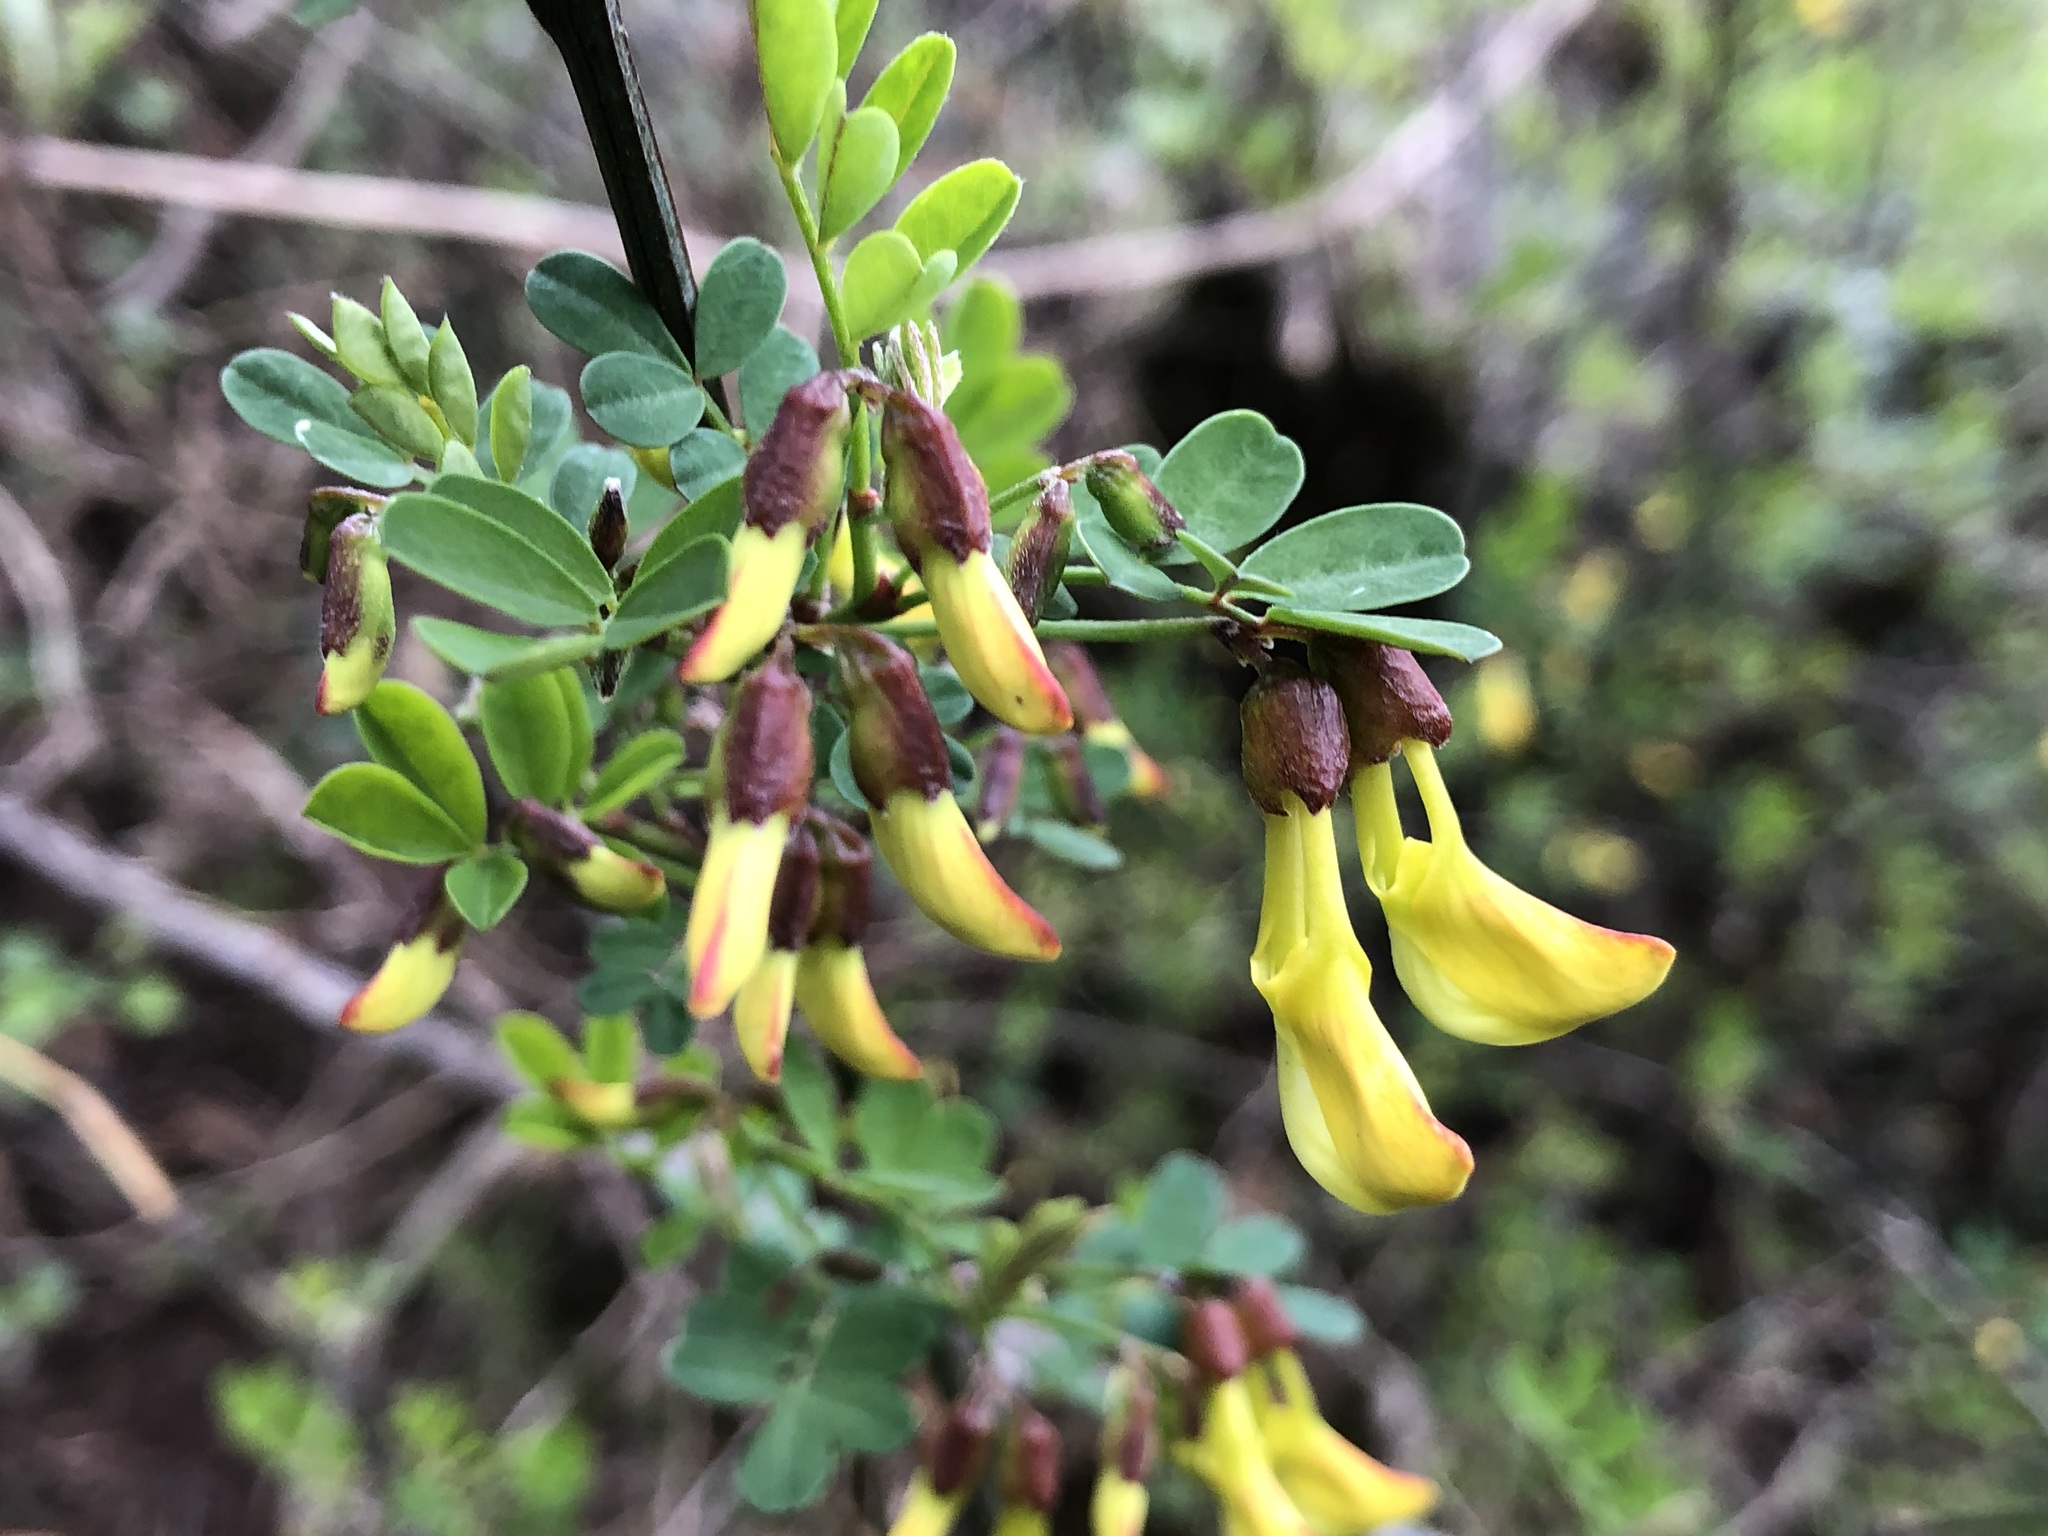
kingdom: Plantae
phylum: Tracheophyta
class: Magnoliopsida
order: Fabales
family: Fabaceae
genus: Hippocrepis
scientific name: Hippocrepis emerus
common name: Scorpion senna
